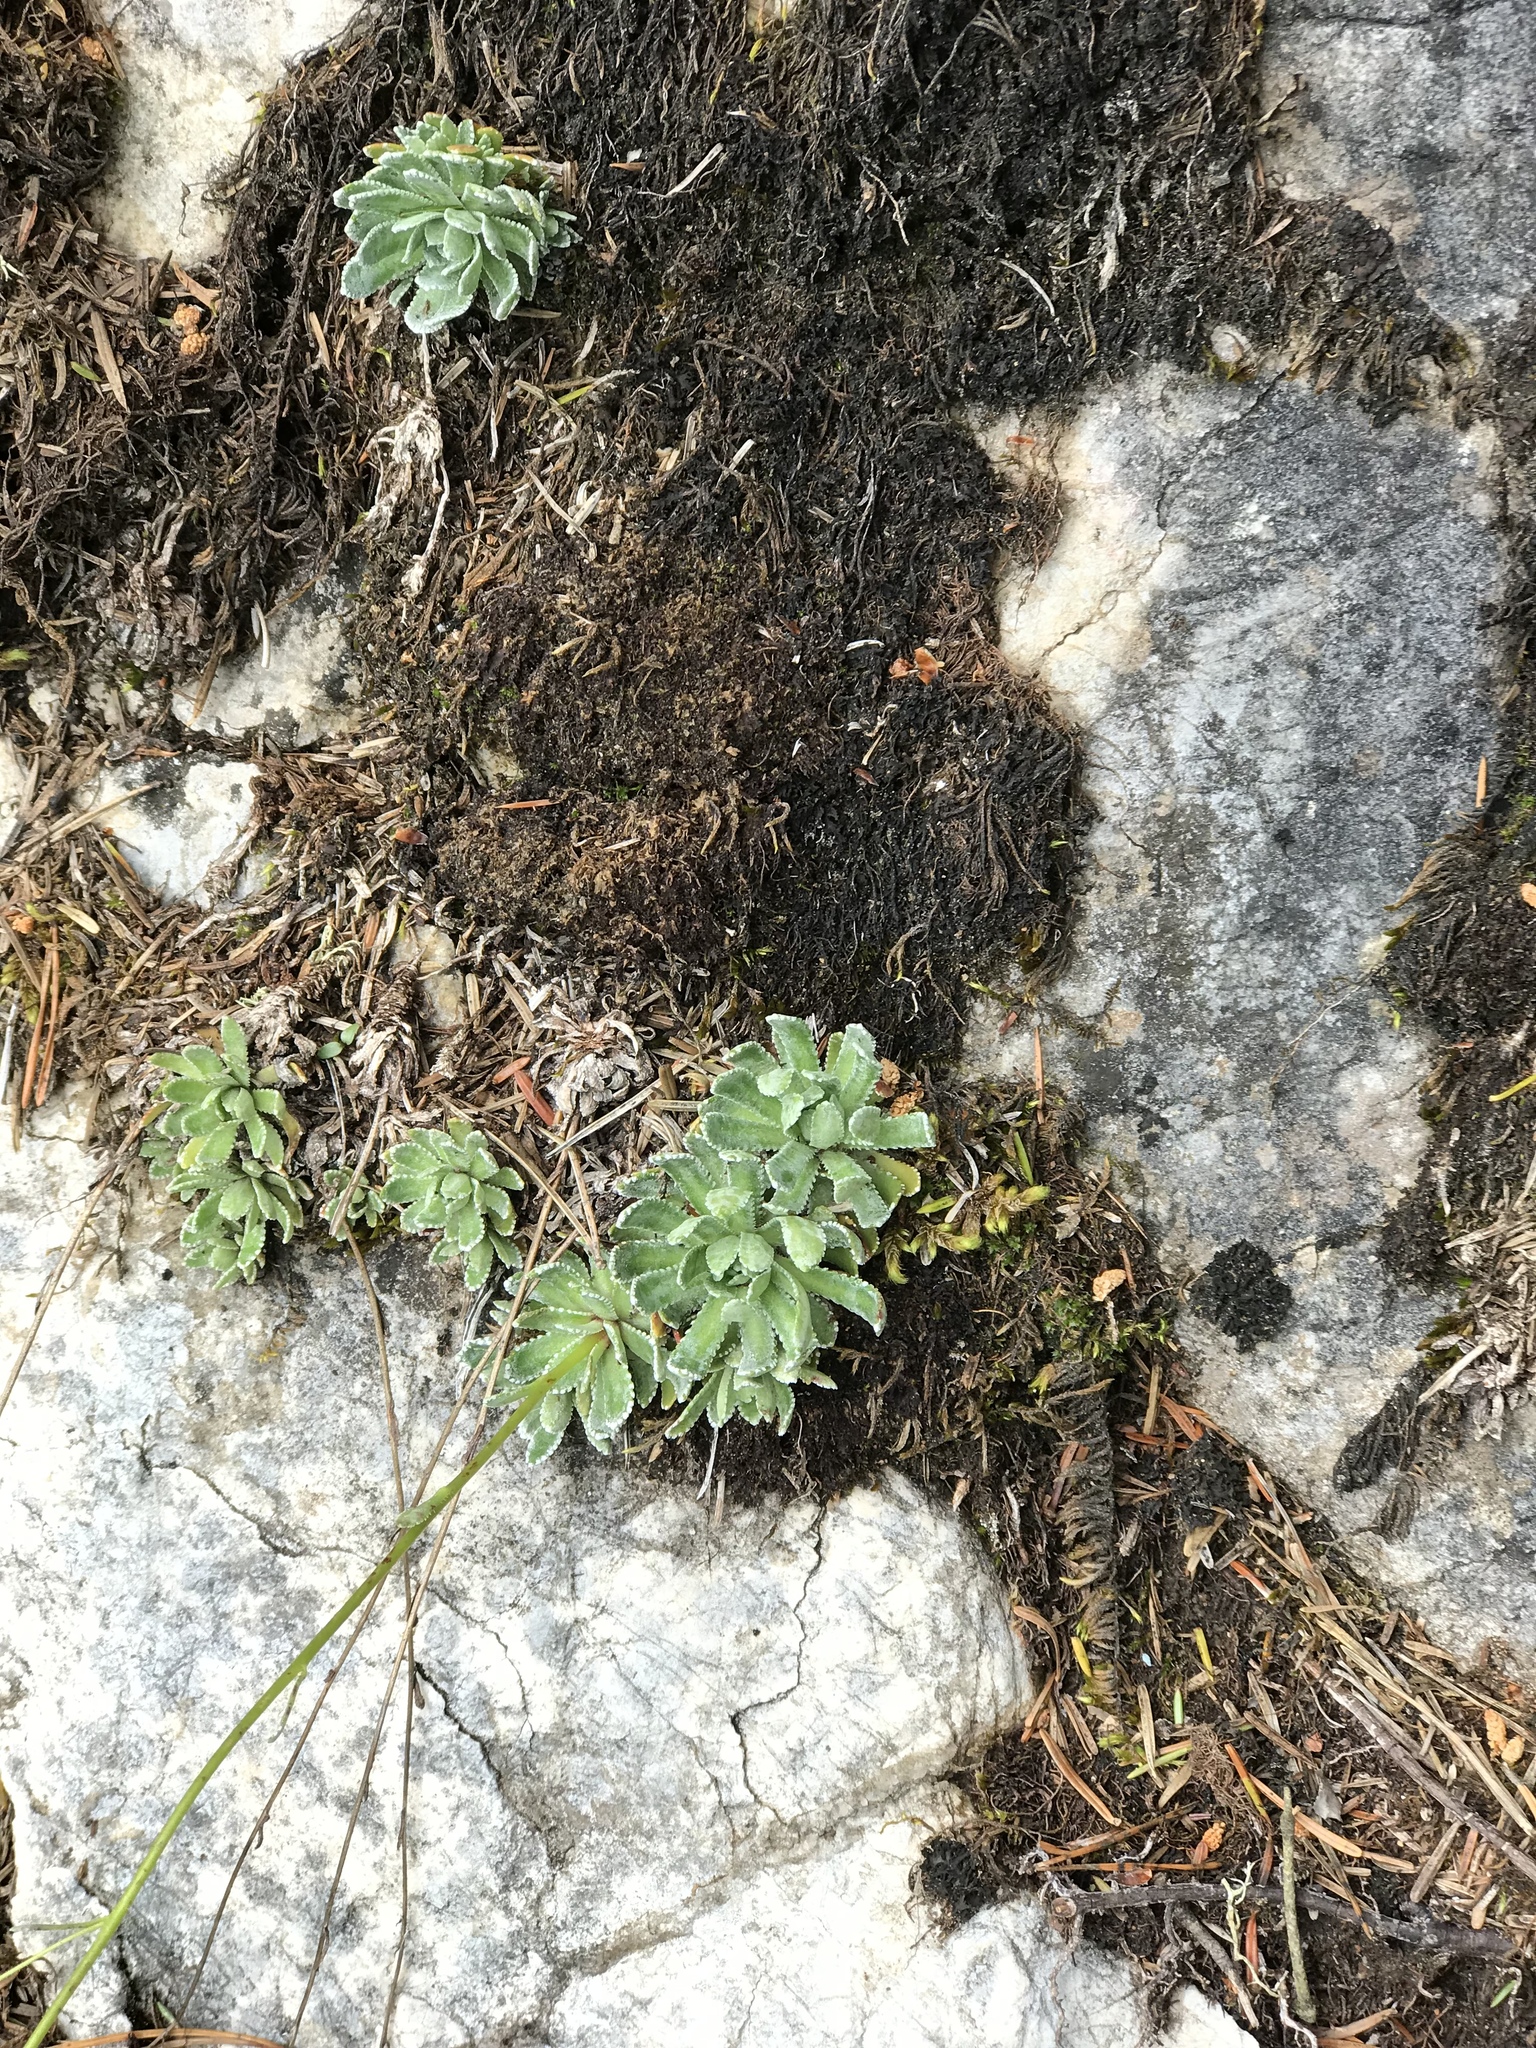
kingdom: Plantae
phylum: Tracheophyta
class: Magnoliopsida
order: Saxifragales
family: Saxifragaceae
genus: Saxifraga
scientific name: Saxifraga paniculata
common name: Livelong saxifrage
